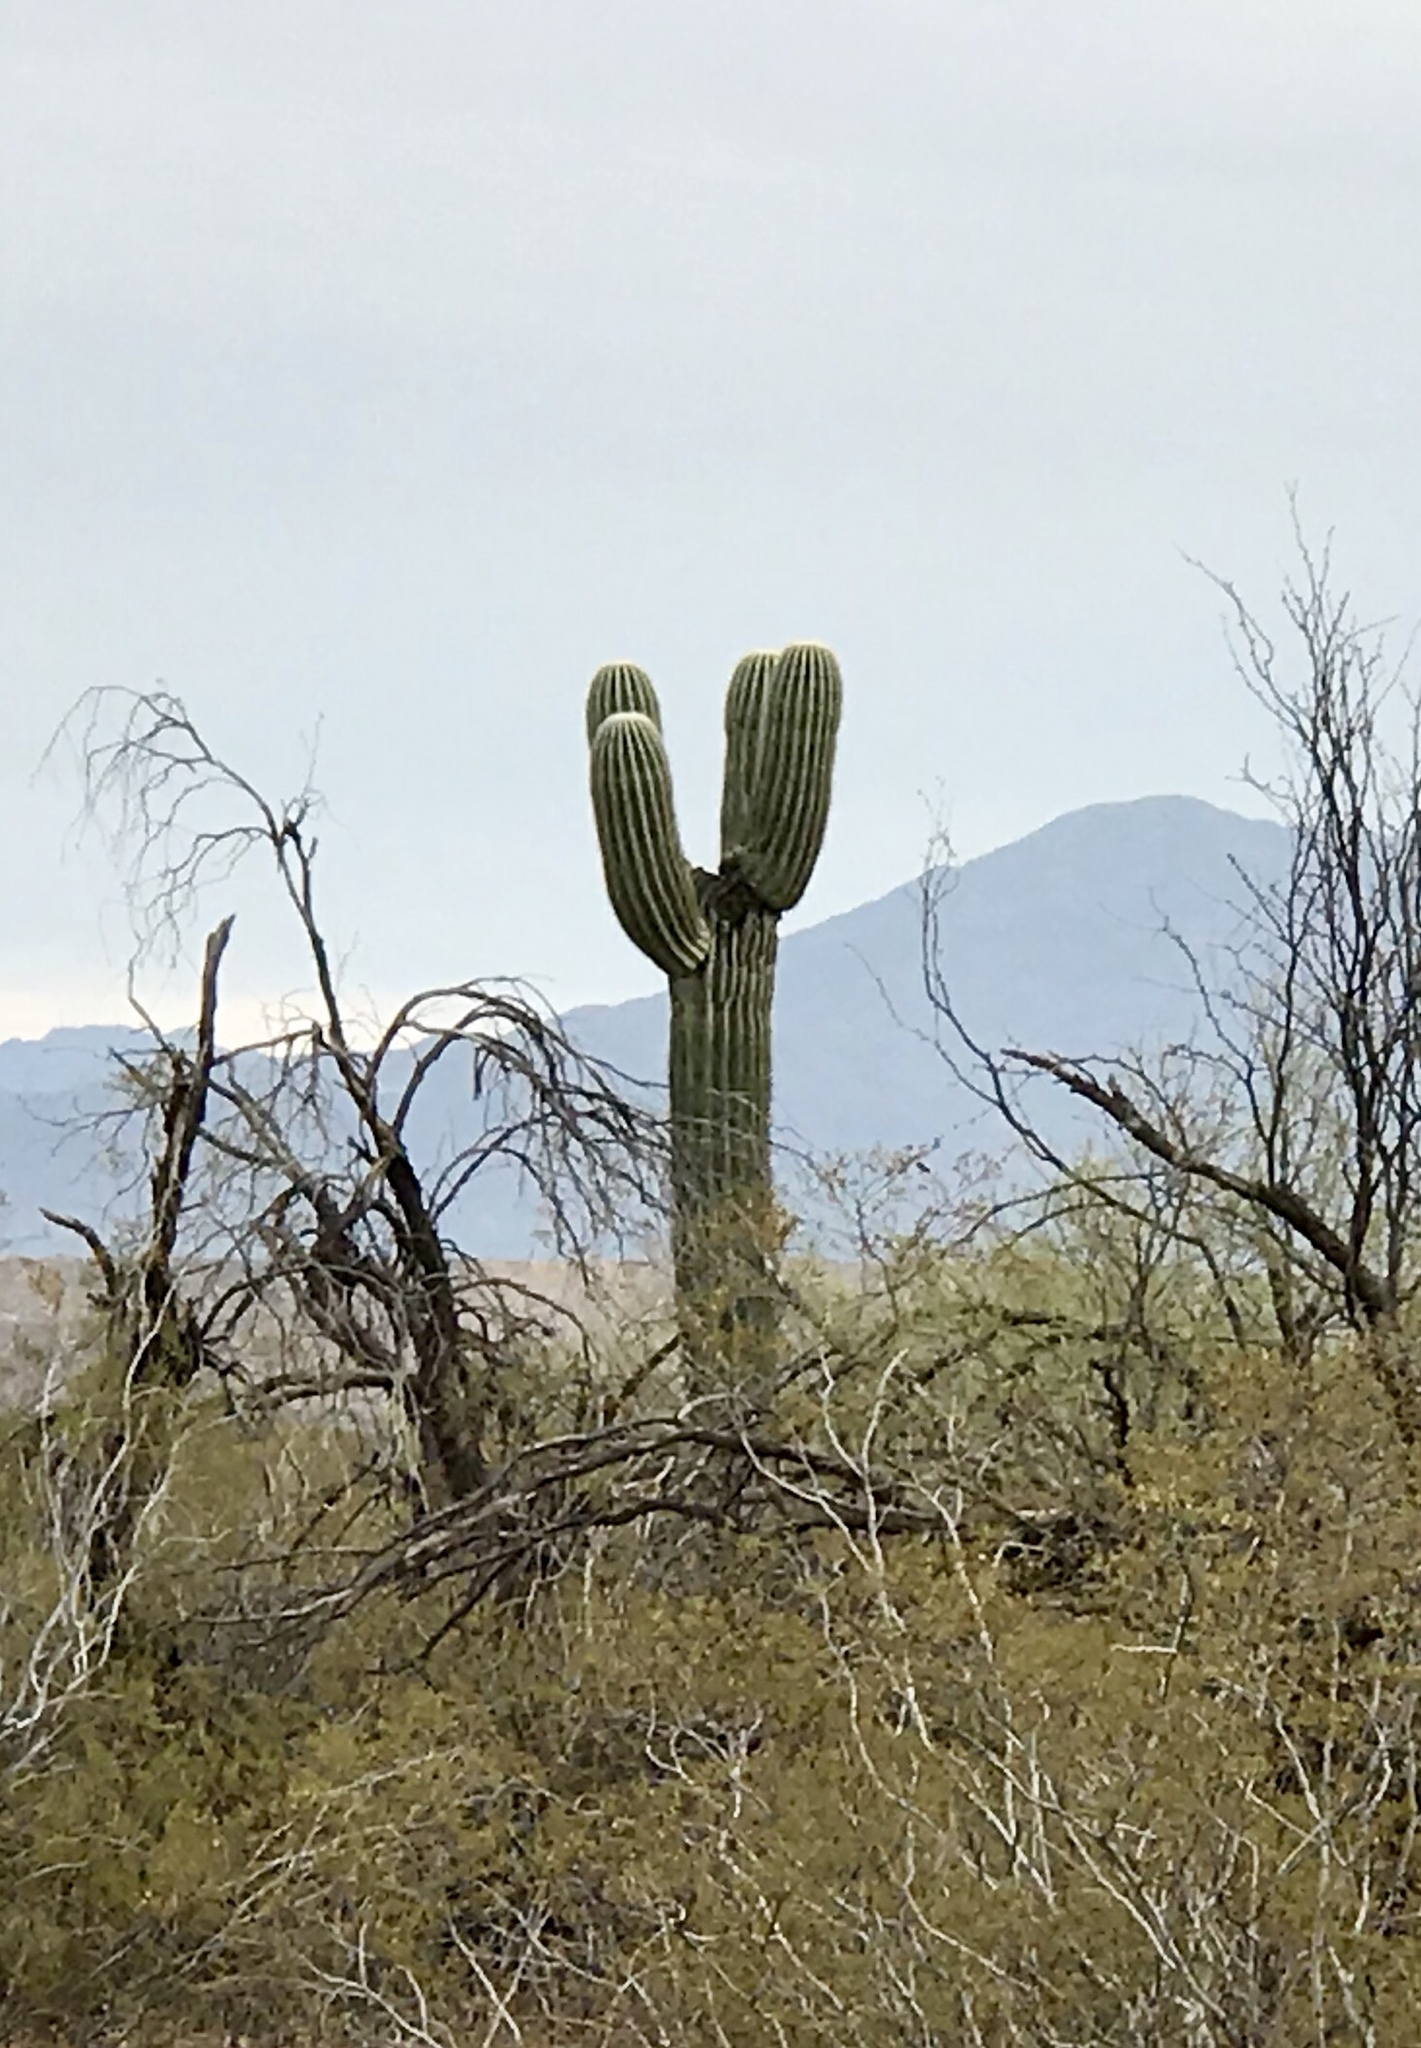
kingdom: Plantae
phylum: Tracheophyta
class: Magnoliopsida
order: Caryophyllales
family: Cactaceae
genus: Carnegiea
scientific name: Carnegiea gigantea
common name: Saguaro
